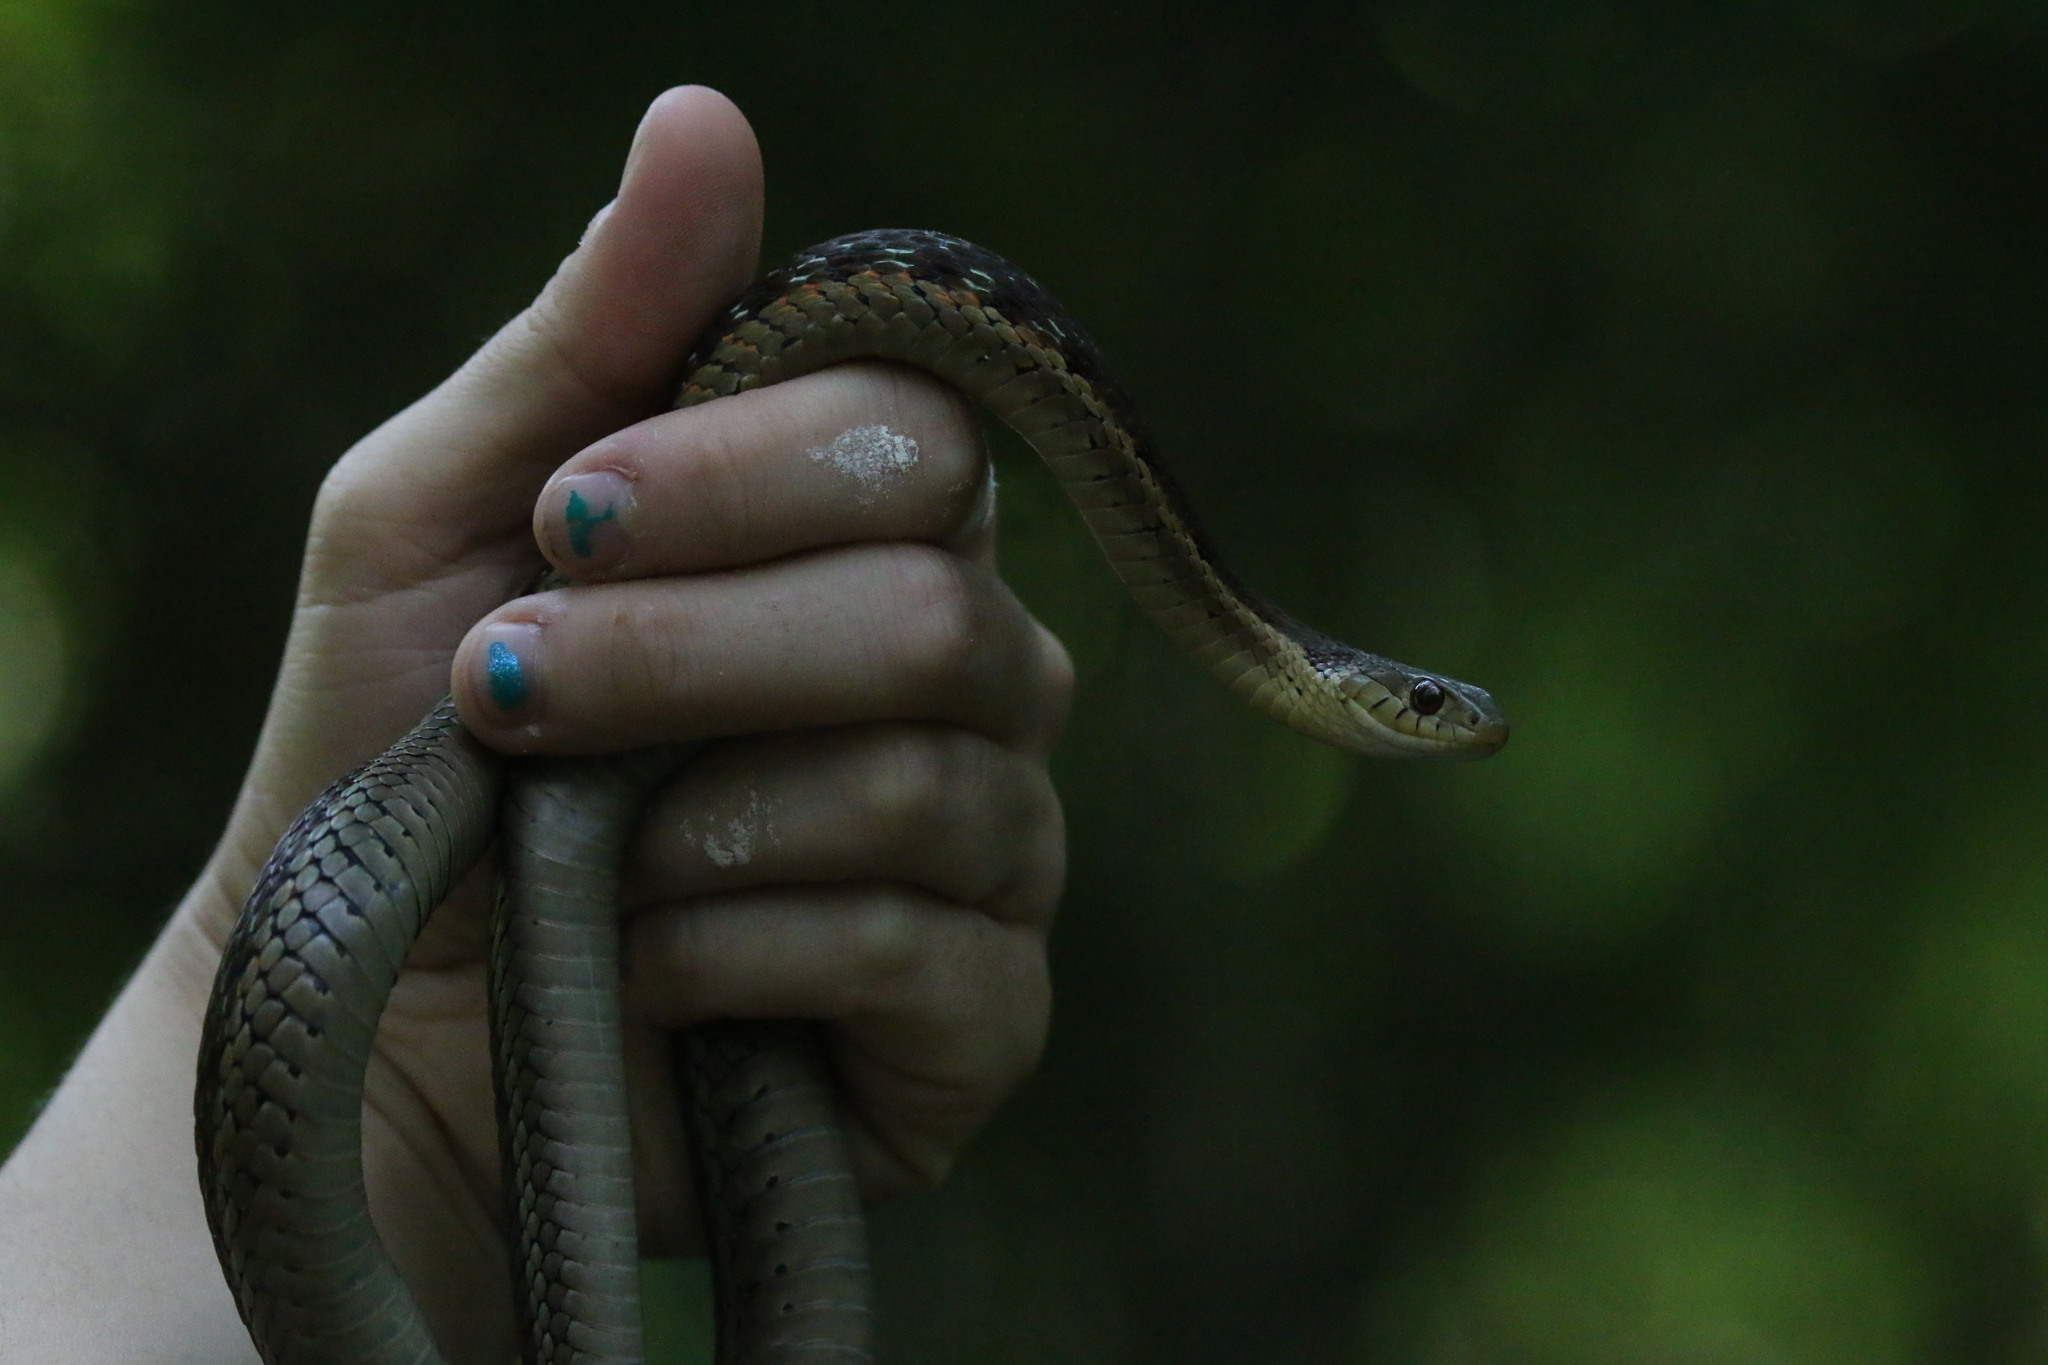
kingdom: Animalia
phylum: Chordata
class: Squamata
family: Colubridae
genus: Thamnophis
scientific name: Thamnophis sirtalis
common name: Common garter snake
